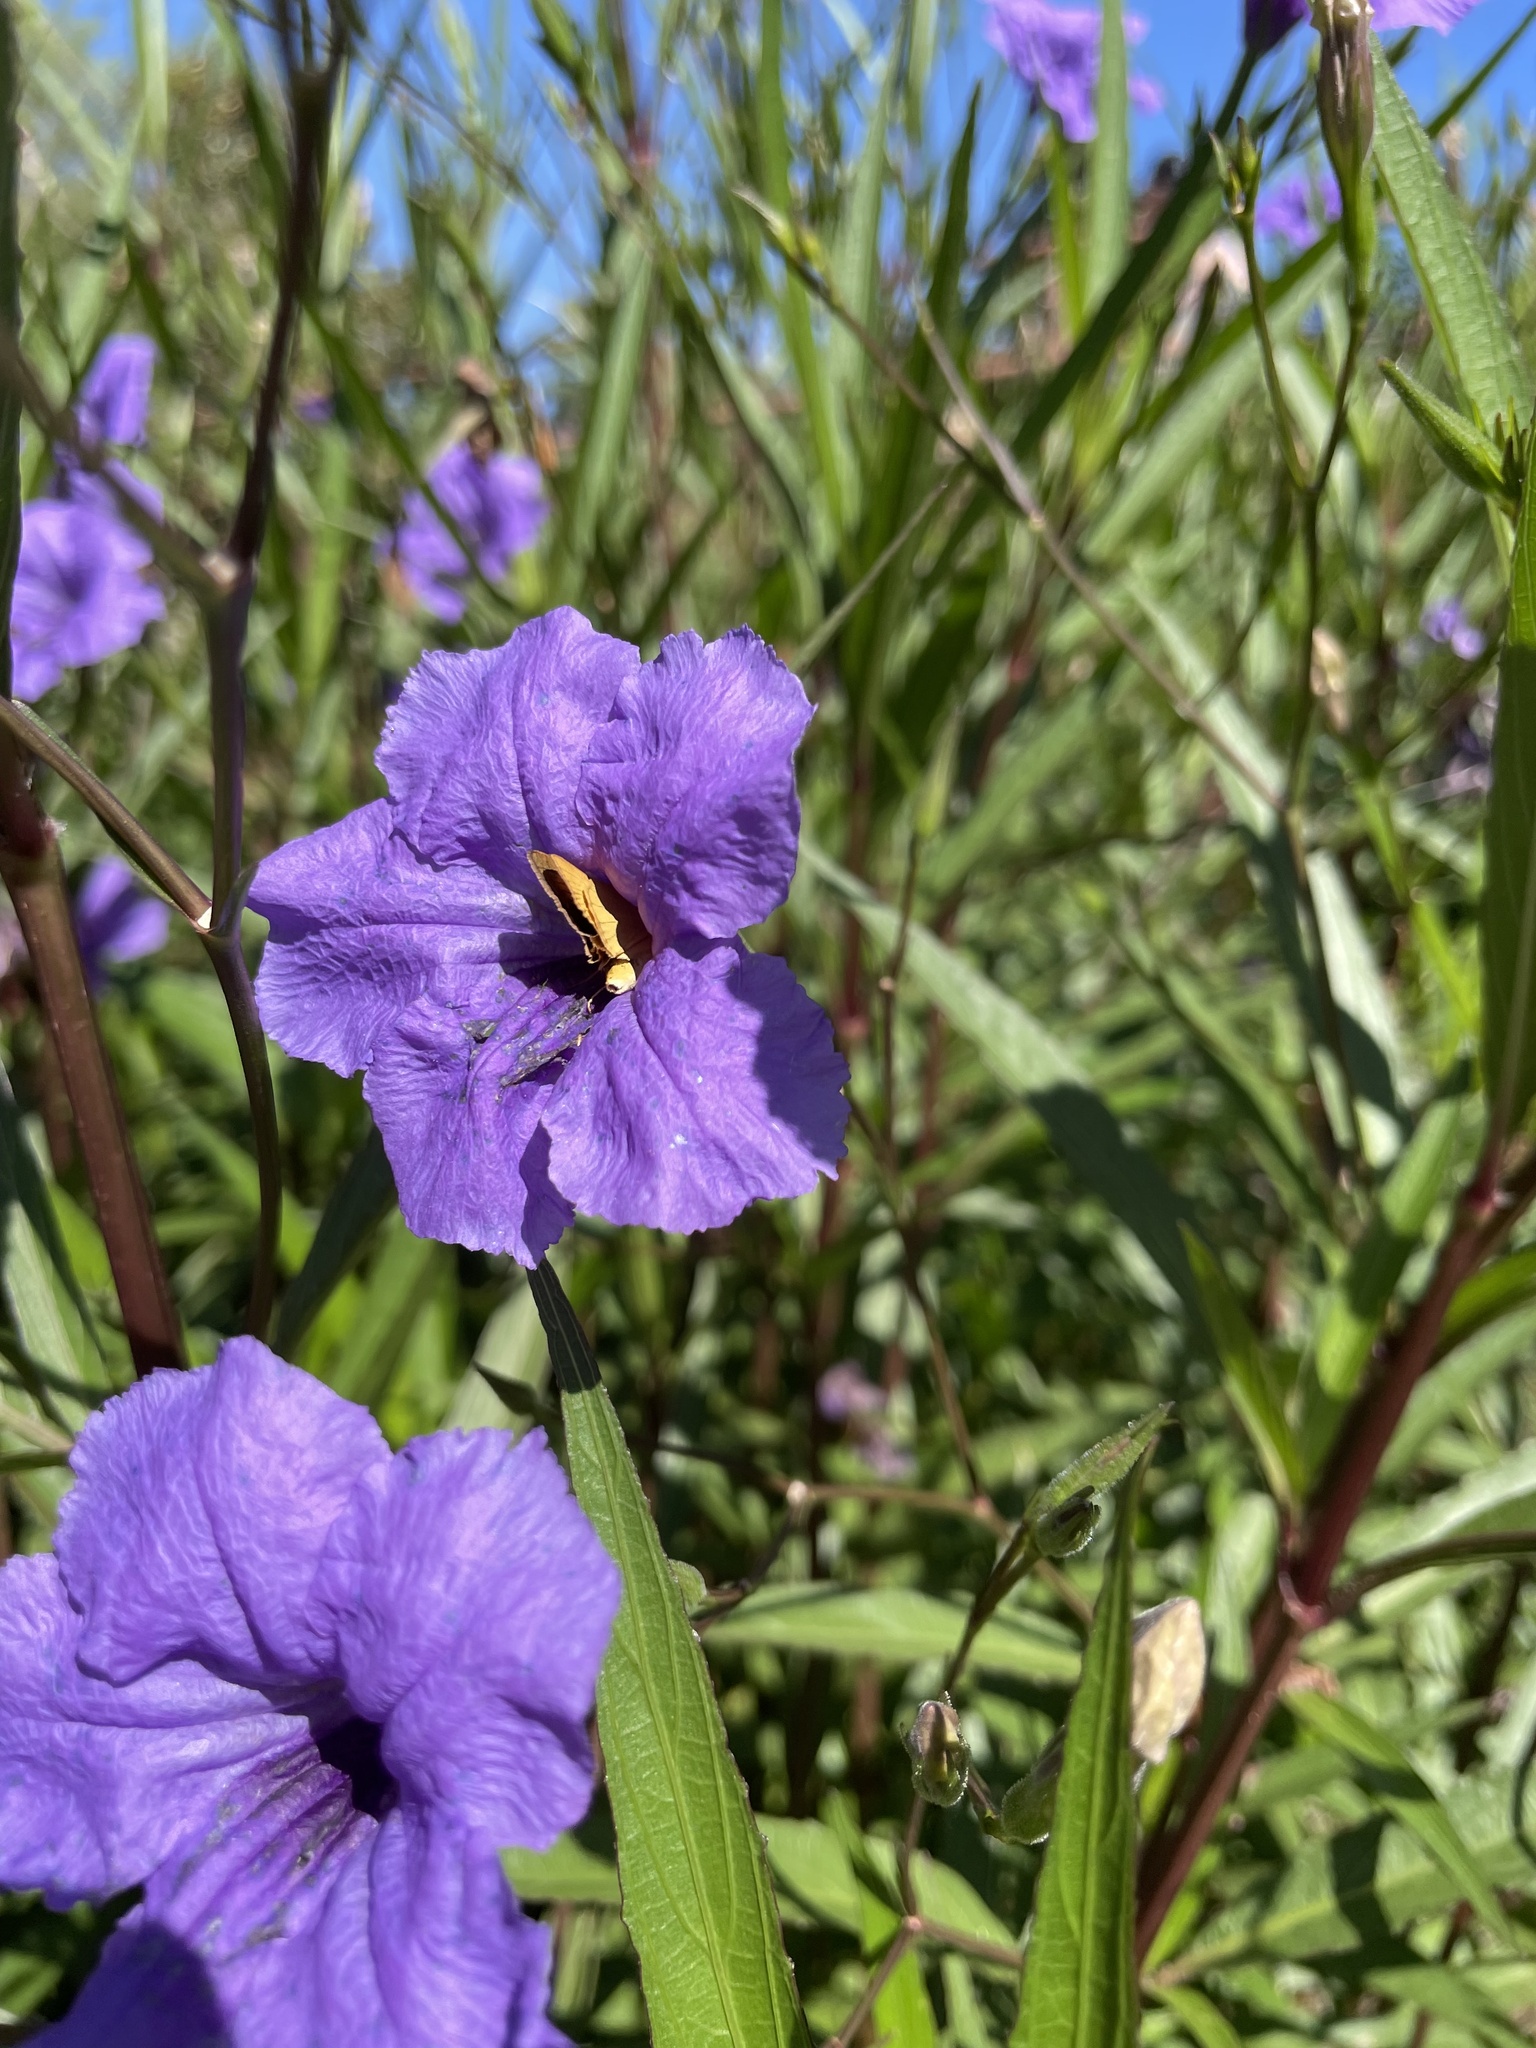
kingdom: Animalia
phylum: Arthropoda
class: Insecta
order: Lepidoptera
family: Hesperiidae
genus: Atrytone
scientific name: Atrytone delaware
